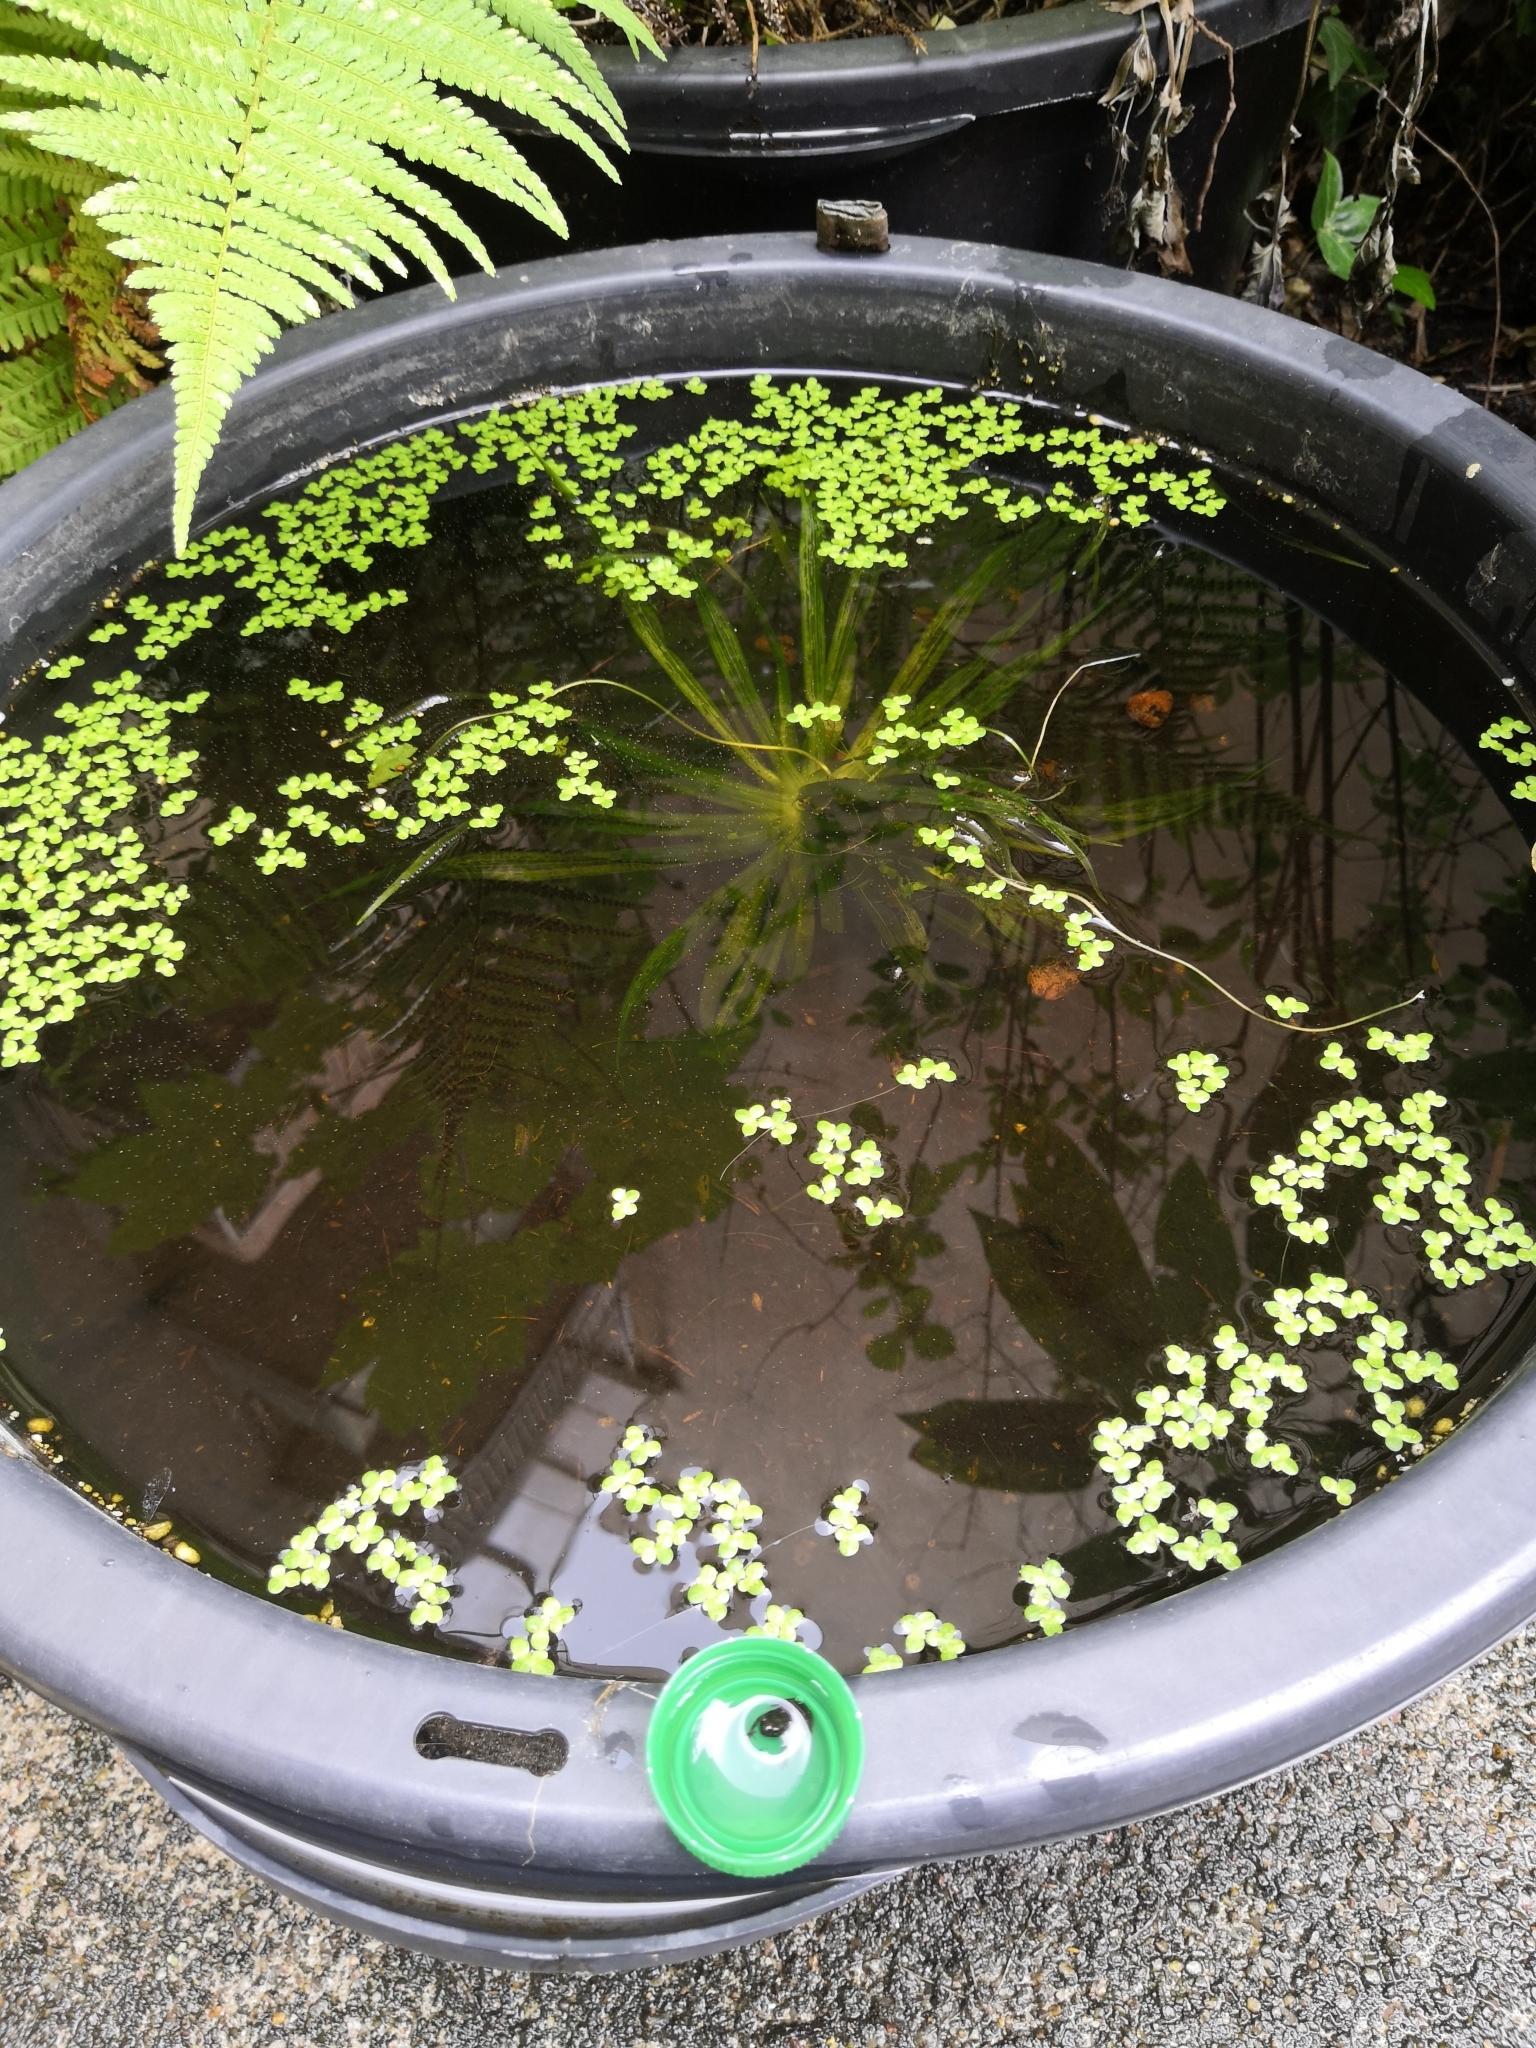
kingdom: Animalia
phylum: Chordata
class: Amphibia
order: Anura
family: Bufonidae
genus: Bufo
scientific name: Bufo bufo
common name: Common toad
